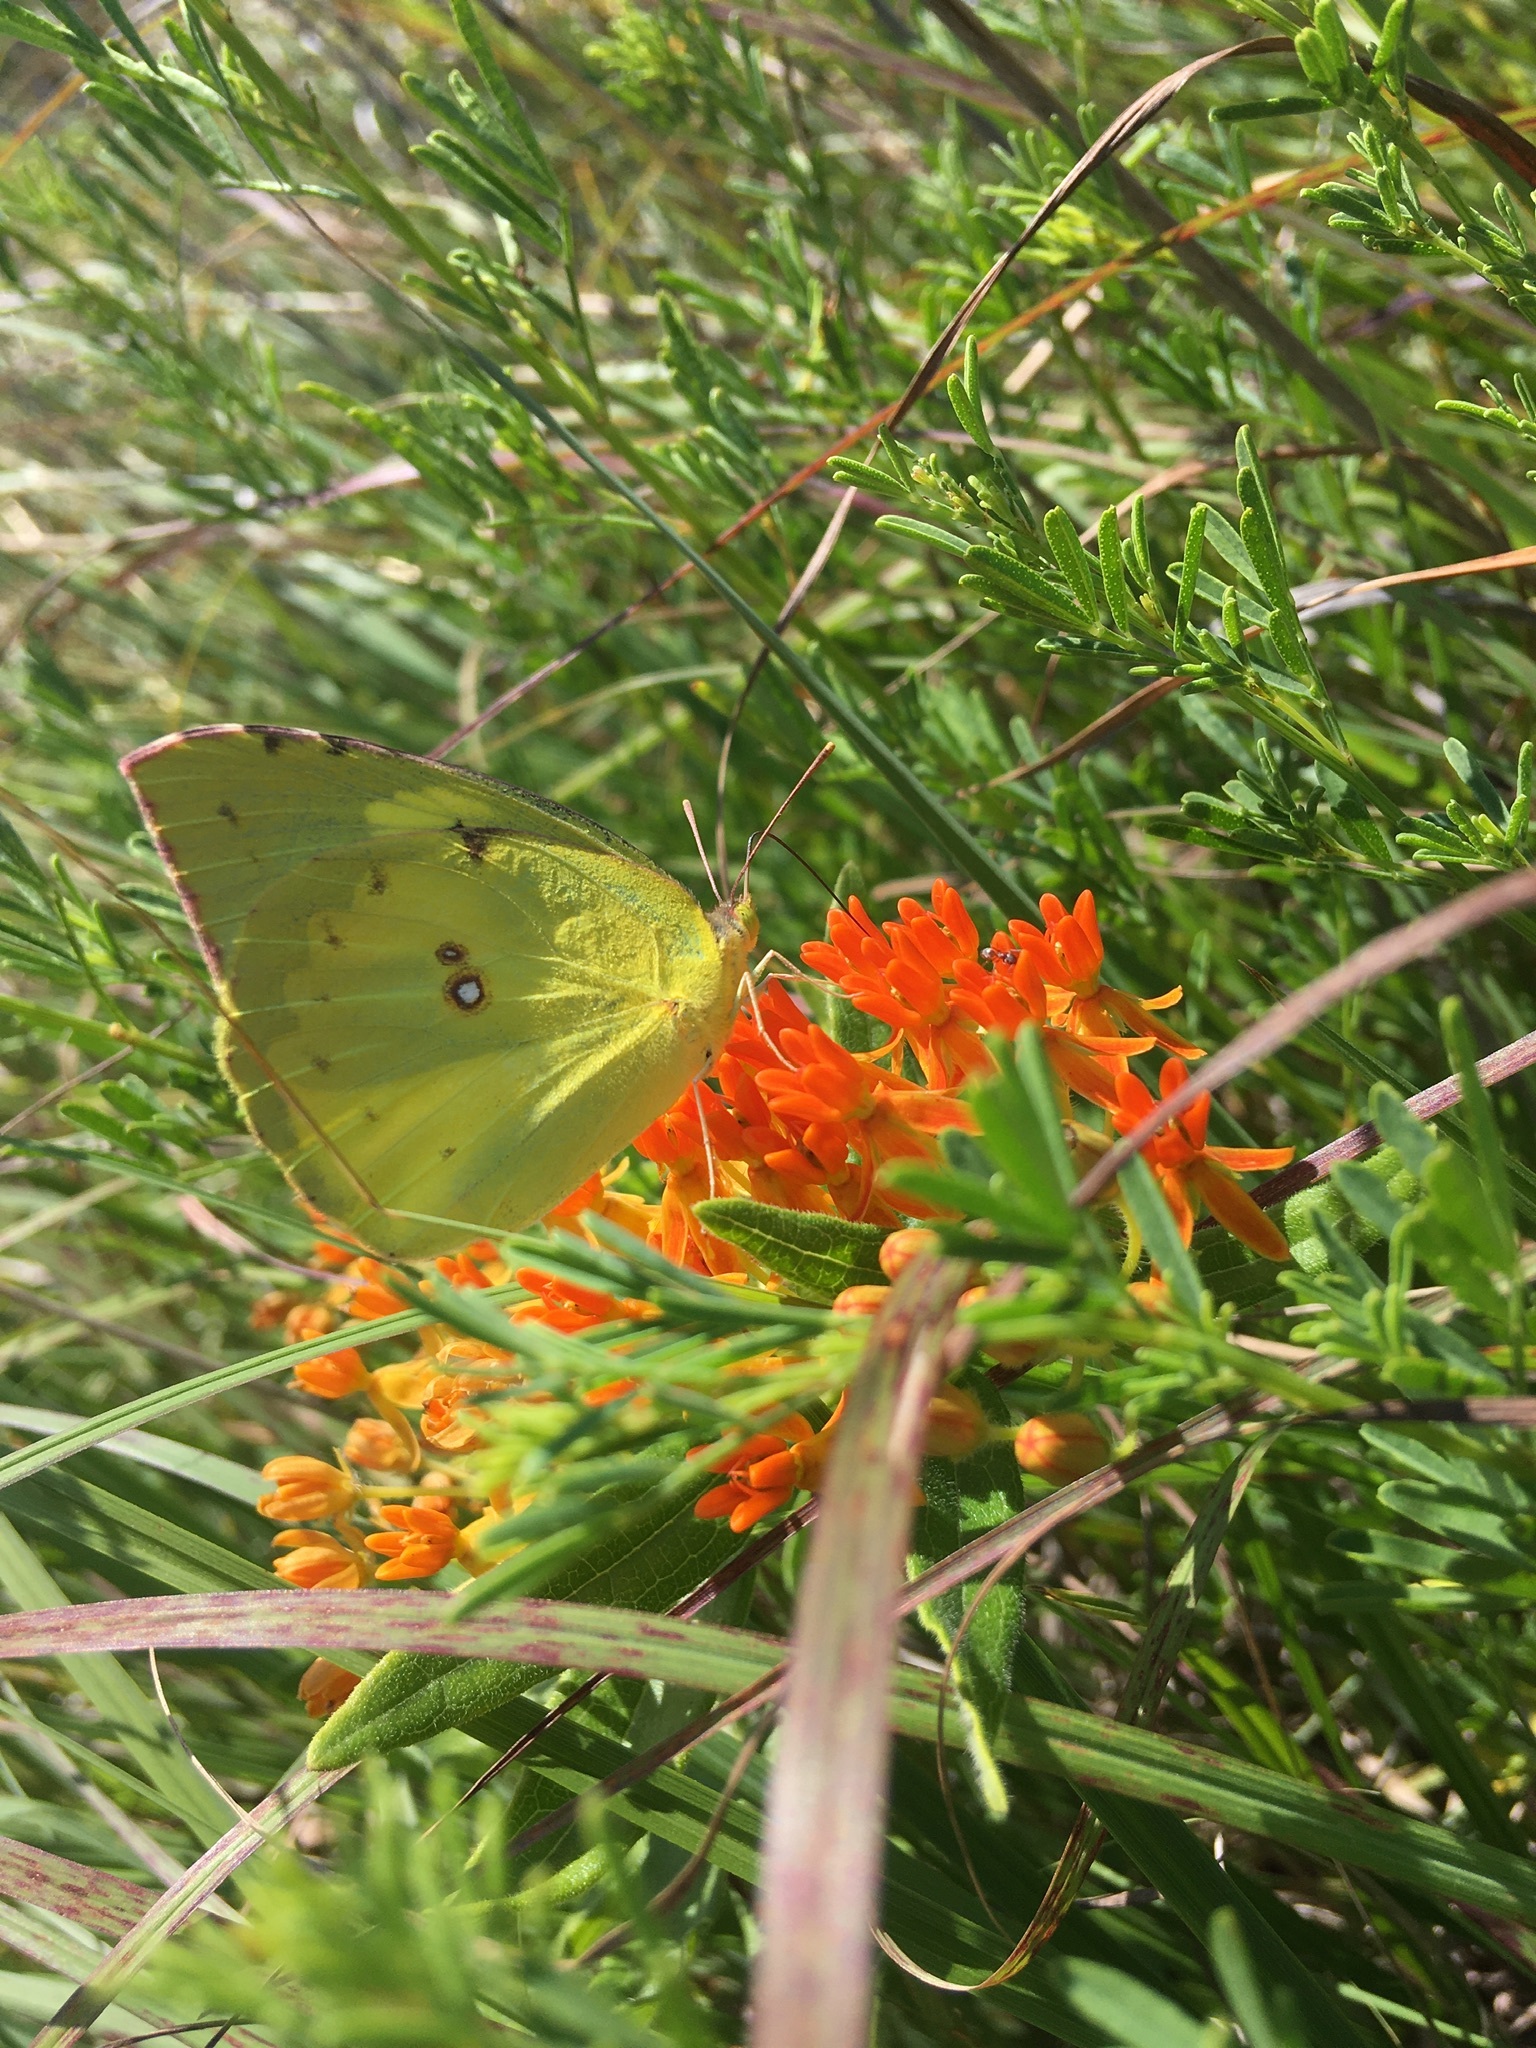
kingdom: Animalia
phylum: Arthropoda
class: Insecta
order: Lepidoptera
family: Pieridae
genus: Zerene
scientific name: Zerene cesonia
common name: Southern dogface
